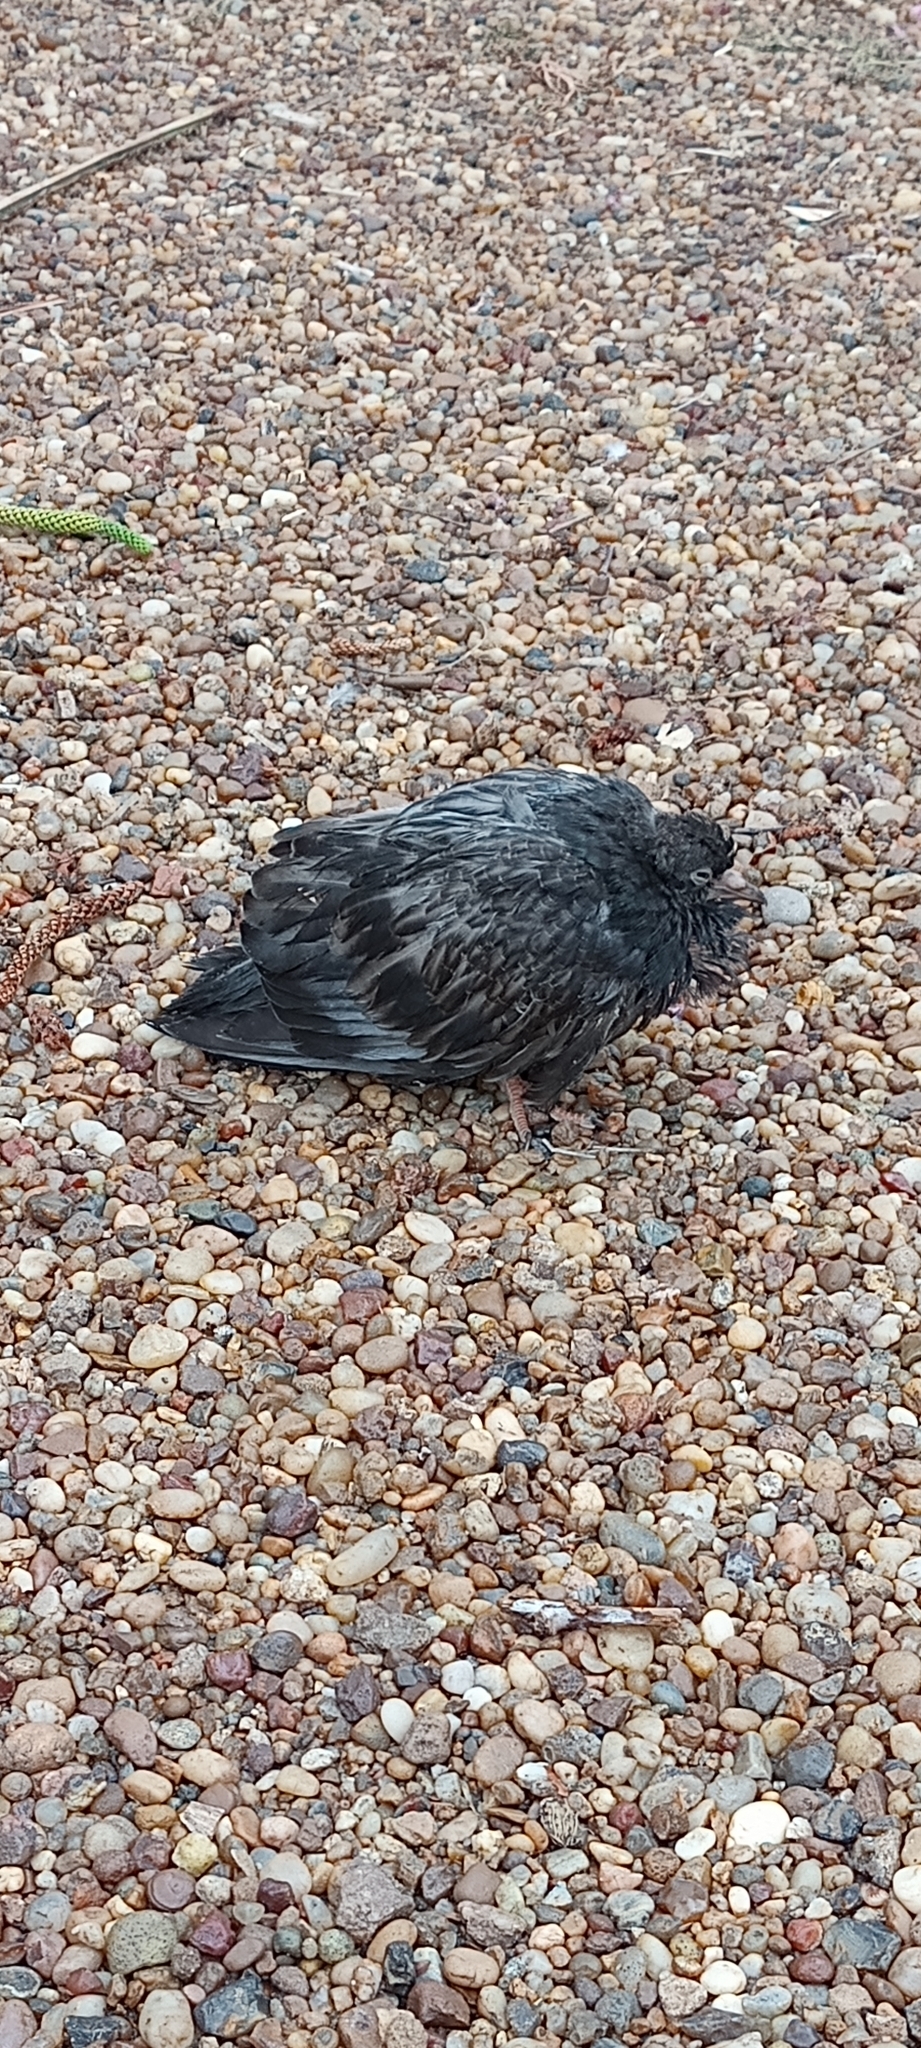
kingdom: Animalia
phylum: Chordata
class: Aves
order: Columbiformes
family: Columbidae
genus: Columba
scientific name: Columba livia
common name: Rock pigeon
